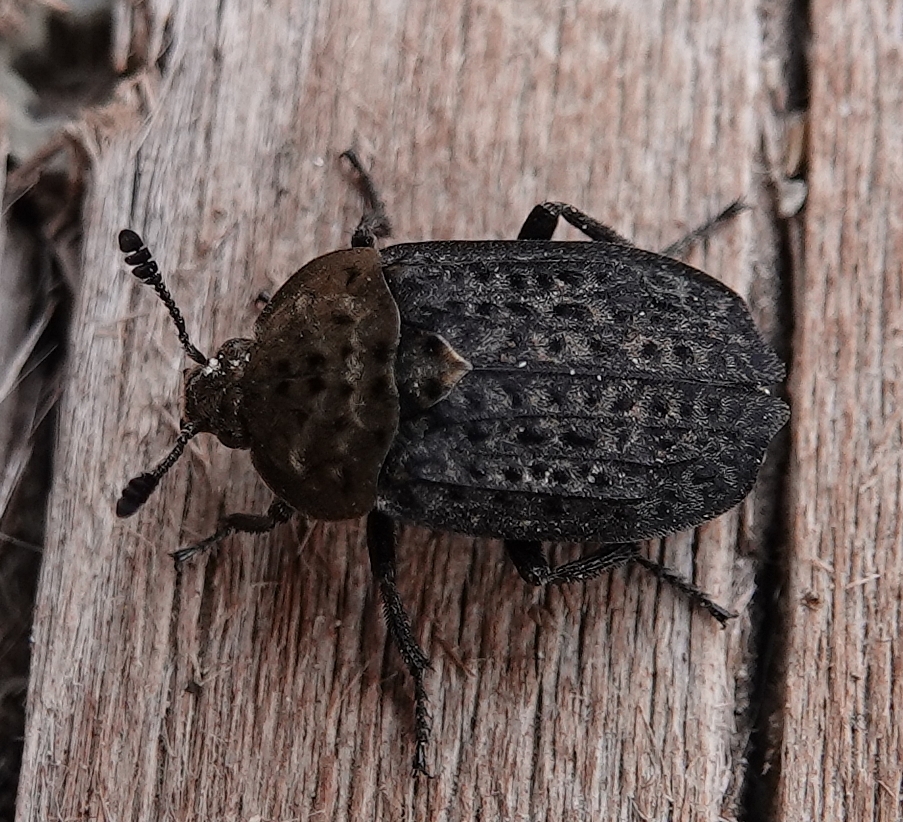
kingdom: Animalia
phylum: Arthropoda
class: Insecta
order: Coleoptera
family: Staphylinidae
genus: Thanatophilus
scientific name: Thanatophilus lapponicus
